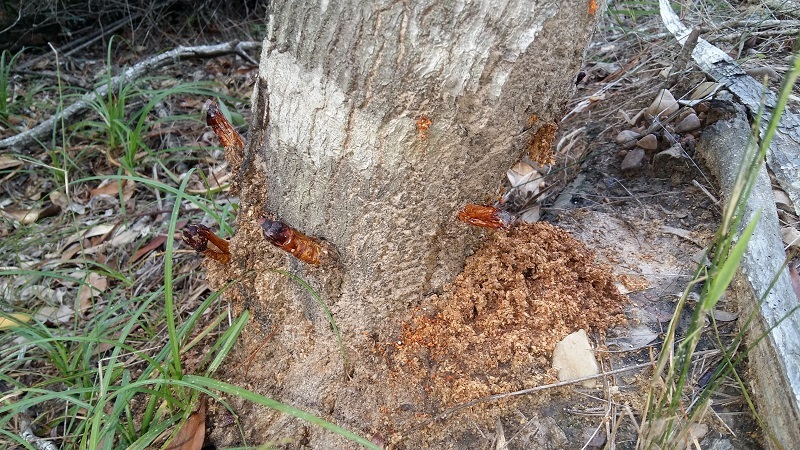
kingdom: Animalia
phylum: Arthropoda
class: Insecta
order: Lepidoptera
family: Hepialidae
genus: Leto
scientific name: Leto venus
